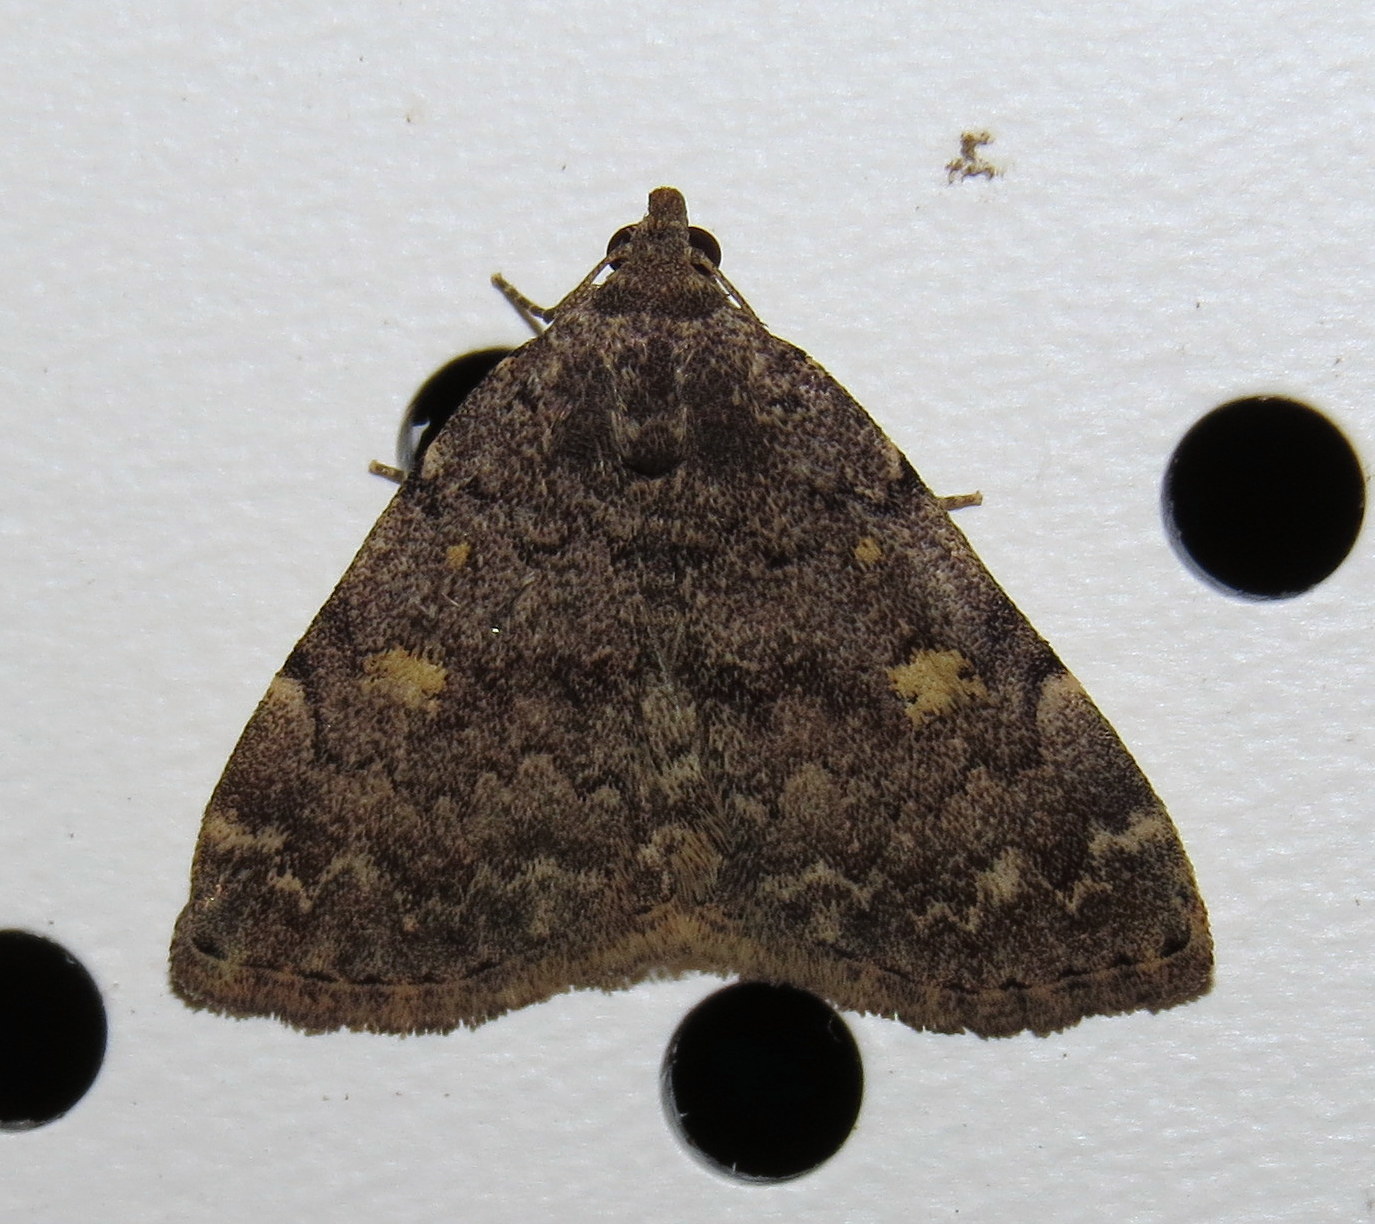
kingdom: Animalia
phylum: Arthropoda
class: Insecta
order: Lepidoptera
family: Erebidae
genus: Idia
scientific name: Idia aemula
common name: Common idia moth
